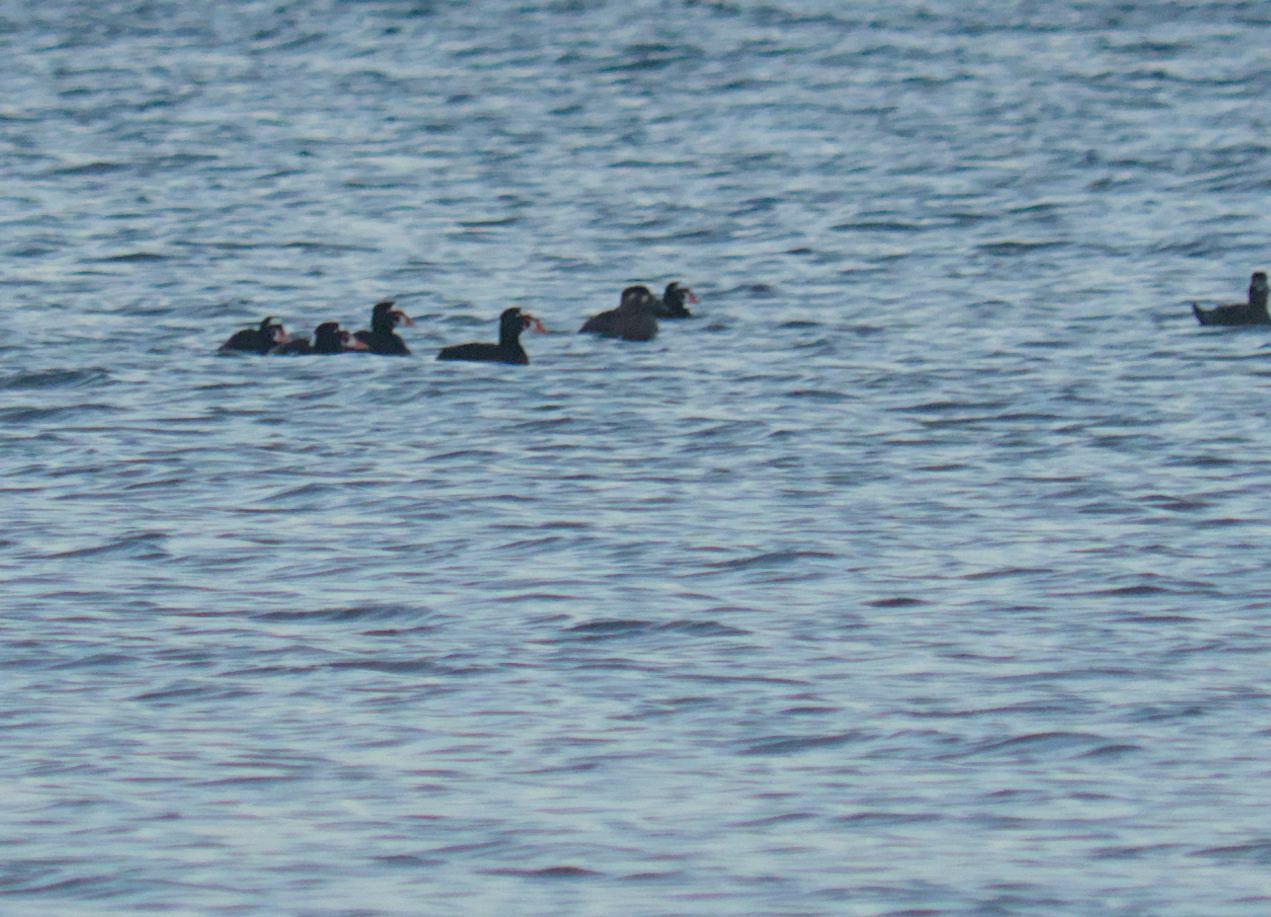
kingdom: Animalia
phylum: Chordata
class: Aves
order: Anseriformes
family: Anatidae
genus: Melanitta
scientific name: Melanitta perspicillata
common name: Surf scoter
